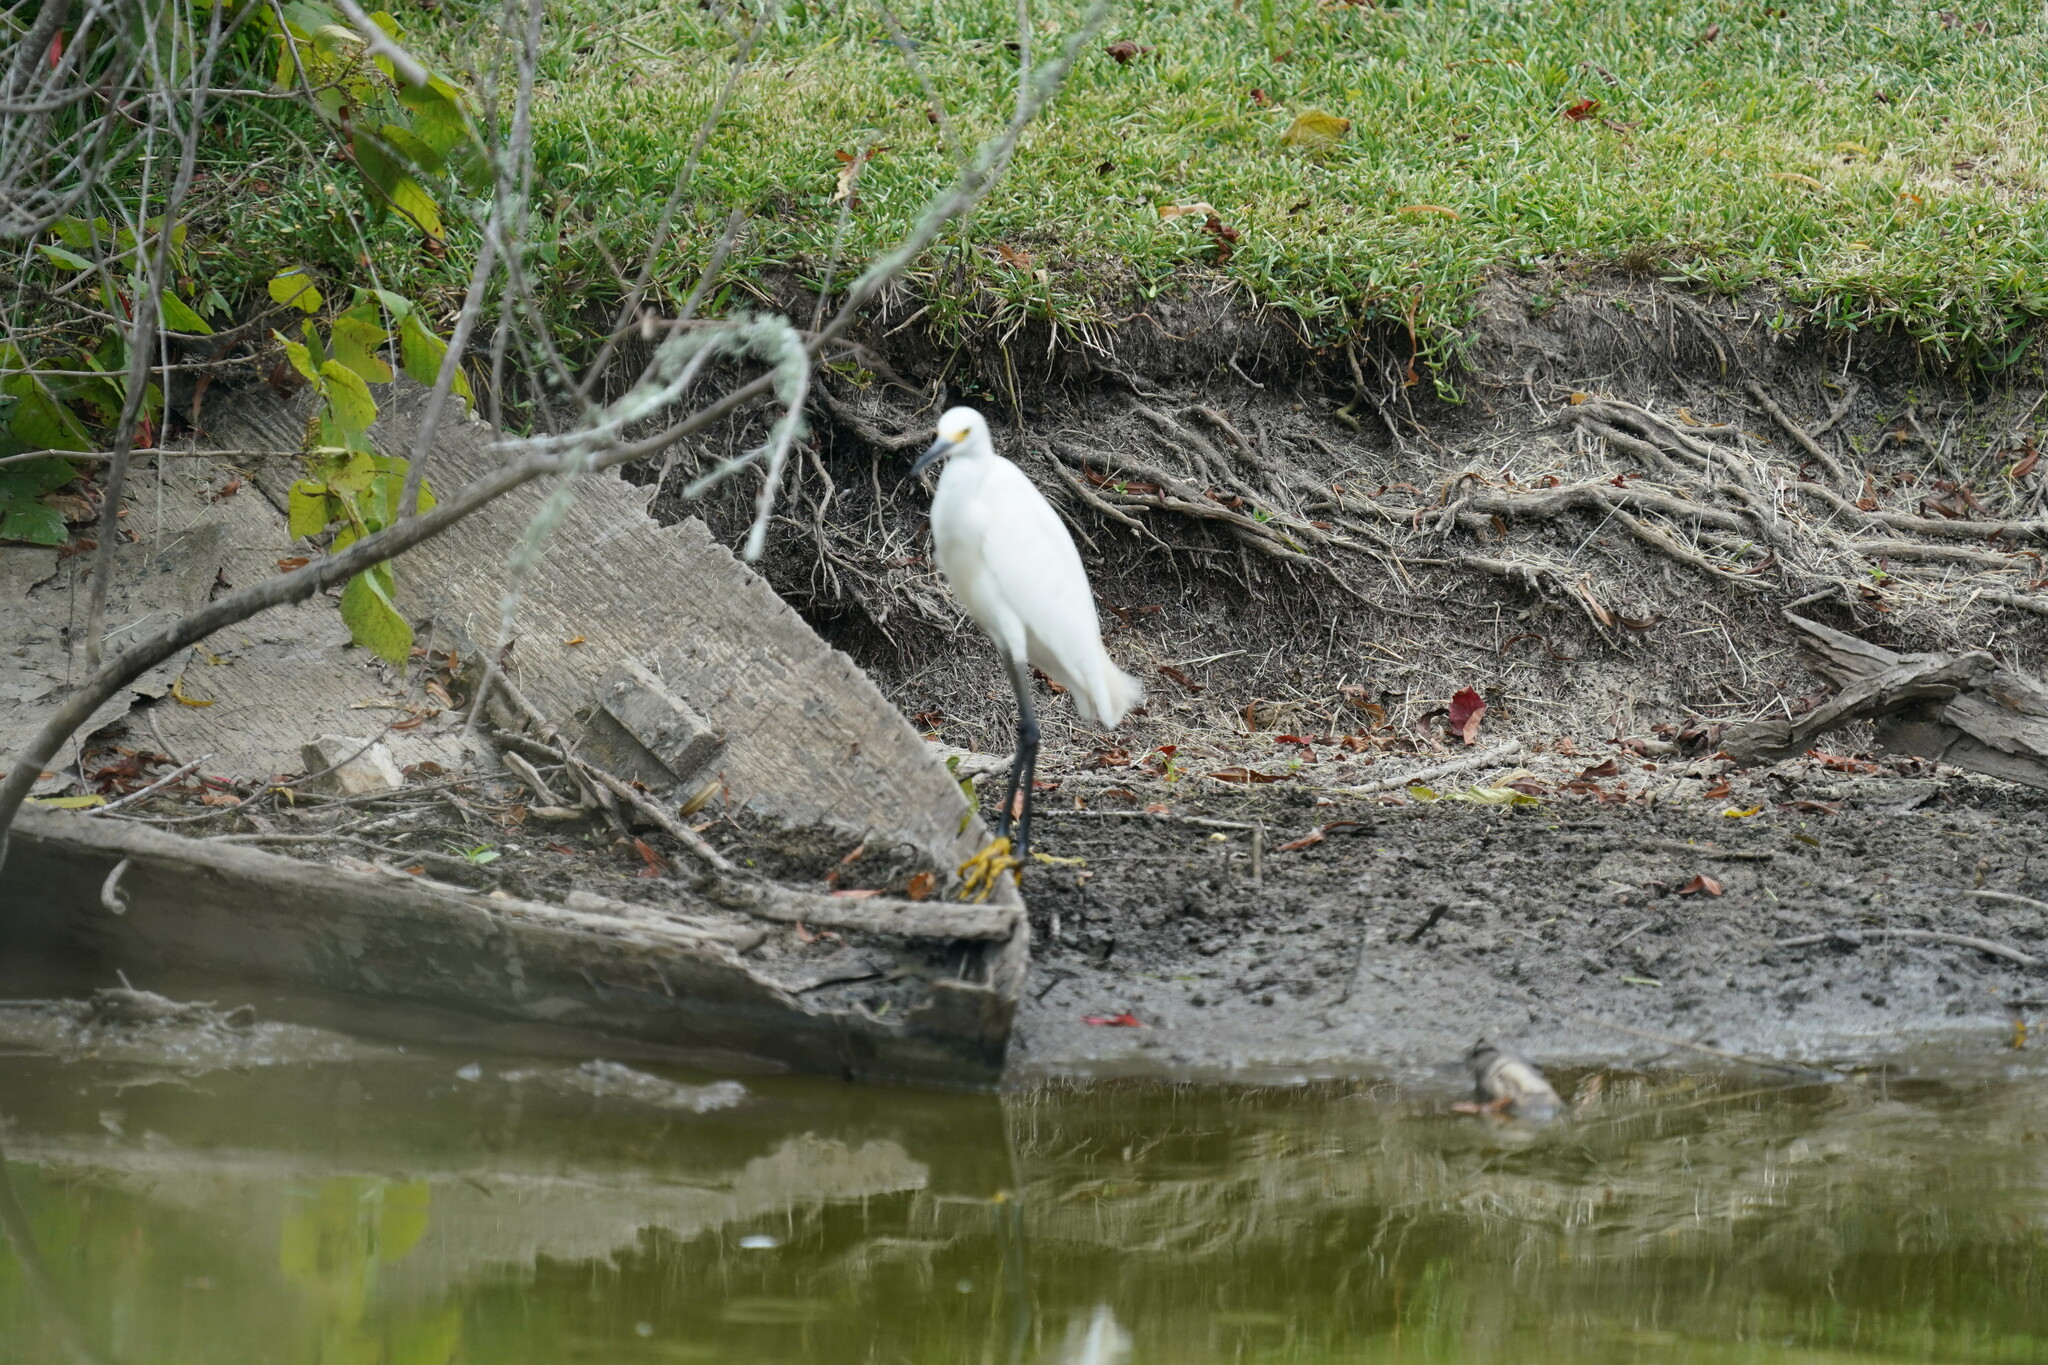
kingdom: Animalia
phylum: Chordata
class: Aves
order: Pelecaniformes
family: Ardeidae
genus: Egretta
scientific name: Egretta thula
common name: Snowy egret
